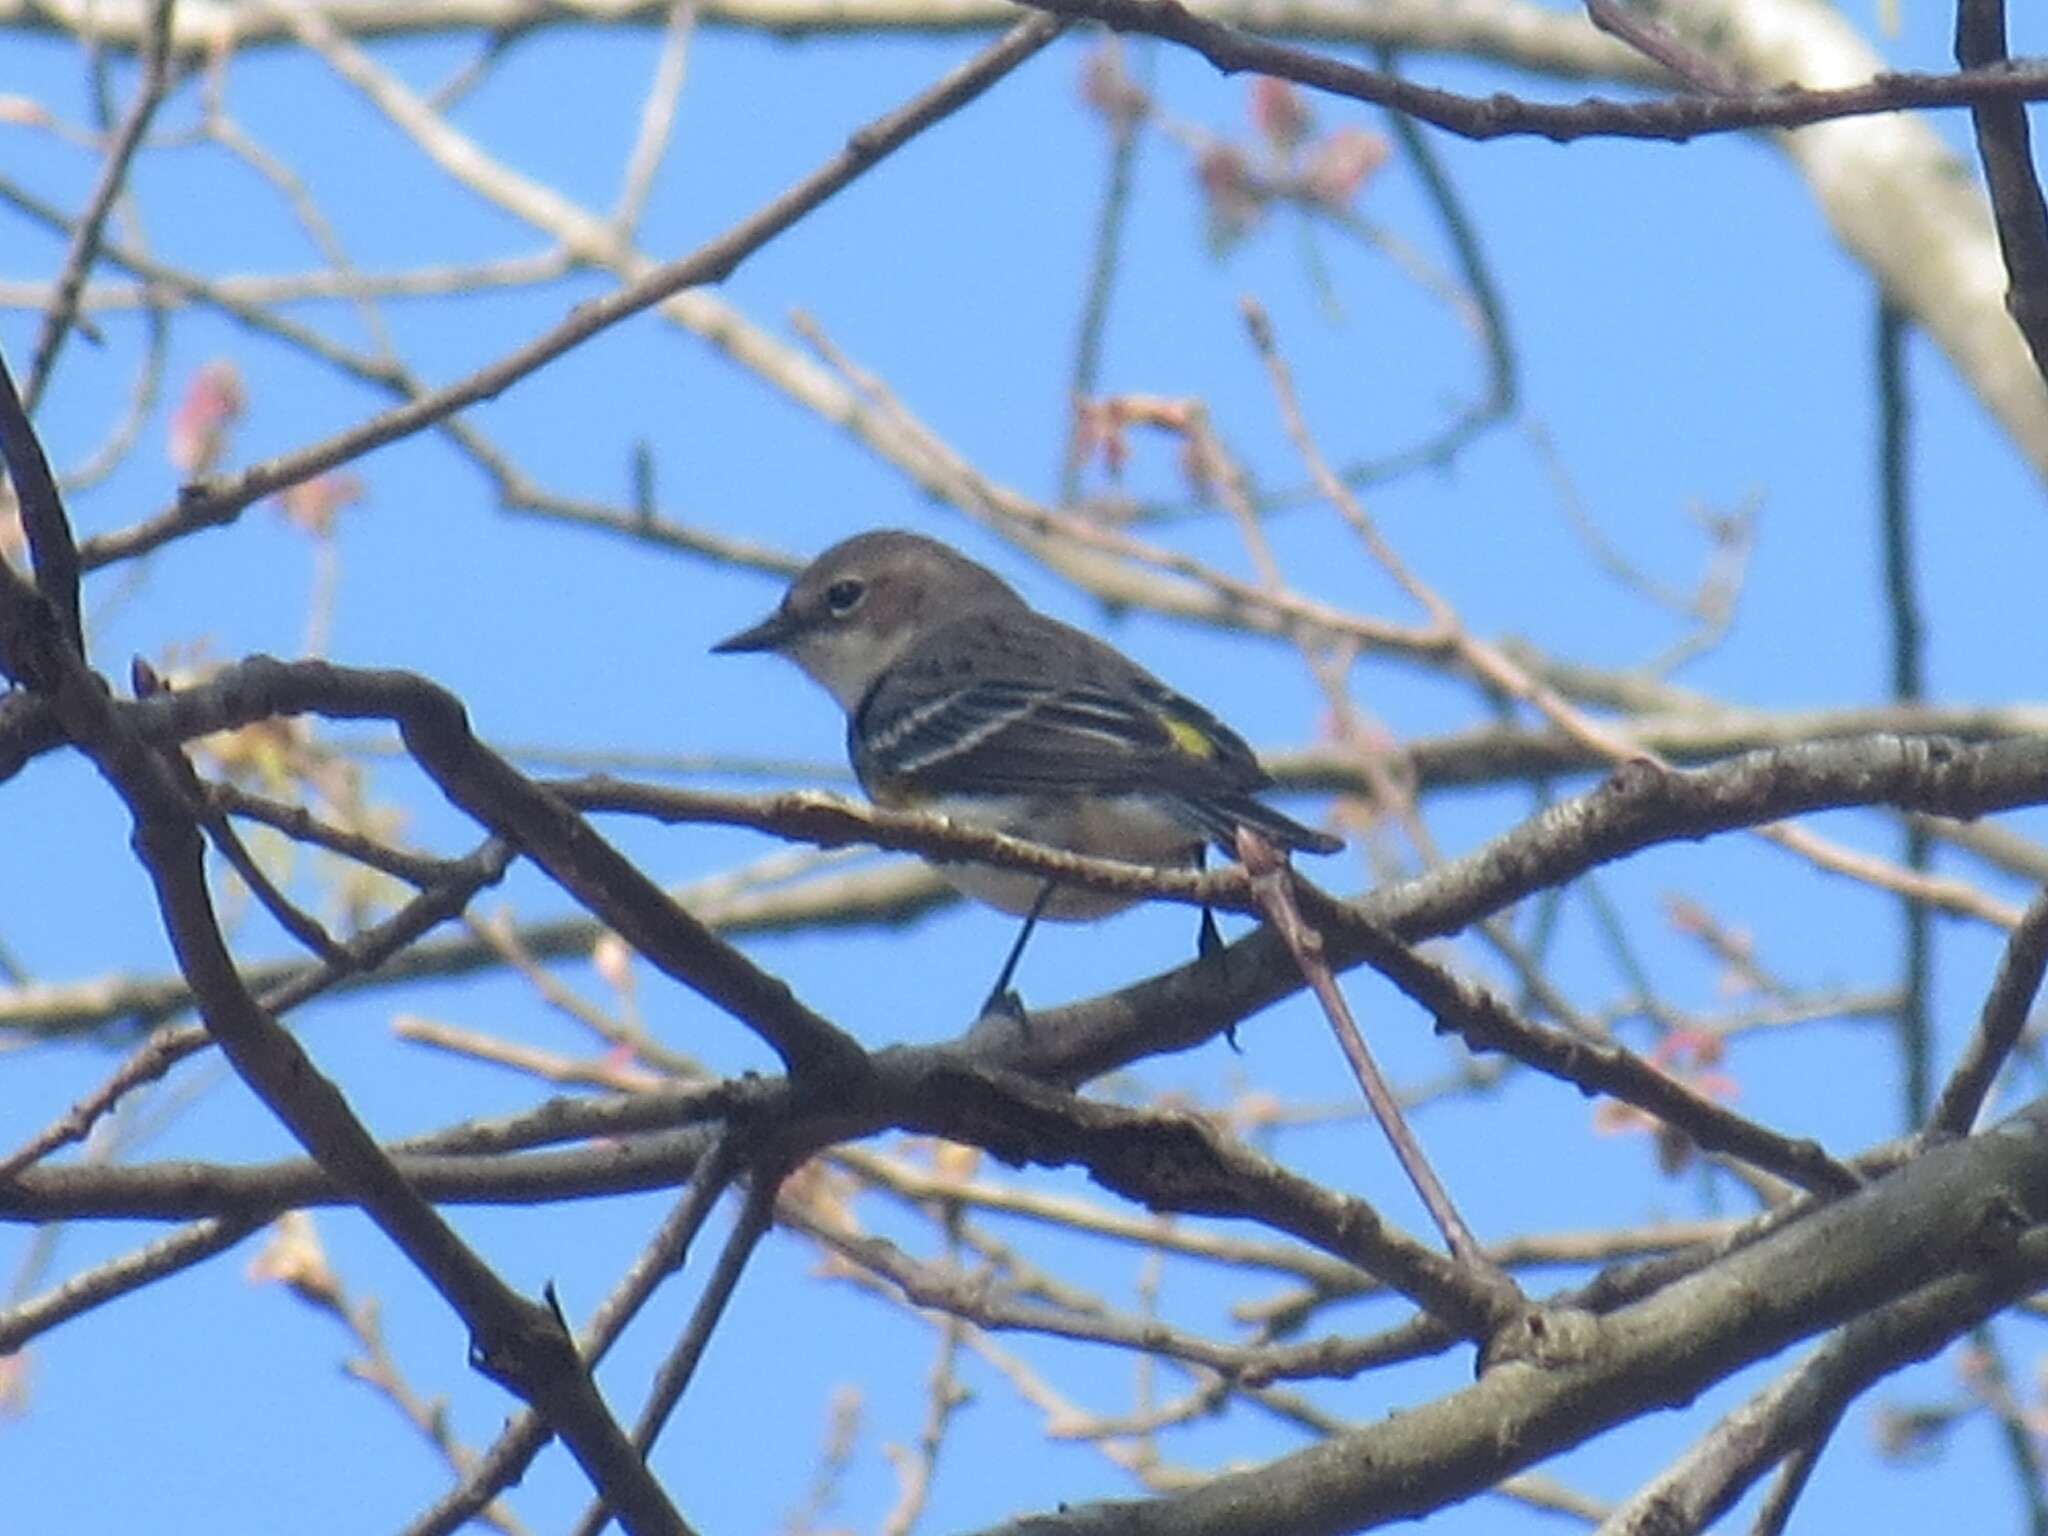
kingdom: Animalia
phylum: Chordata
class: Aves
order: Passeriformes
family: Parulidae
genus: Setophaga
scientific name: Setophaga coronata
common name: Myrtle warbler
